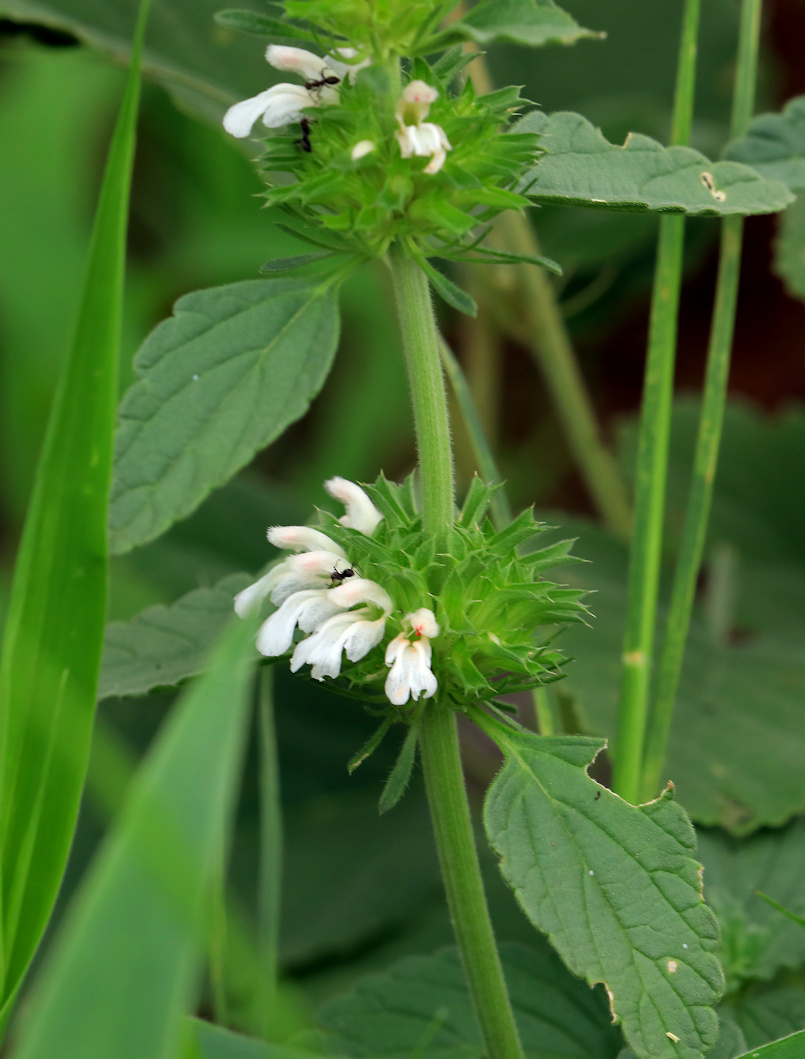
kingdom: Plantae
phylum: Tracheophyta
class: Magnoliopsida
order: Lamiales
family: Lamiaceae
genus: Leucas
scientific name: Leucas sexdentata
